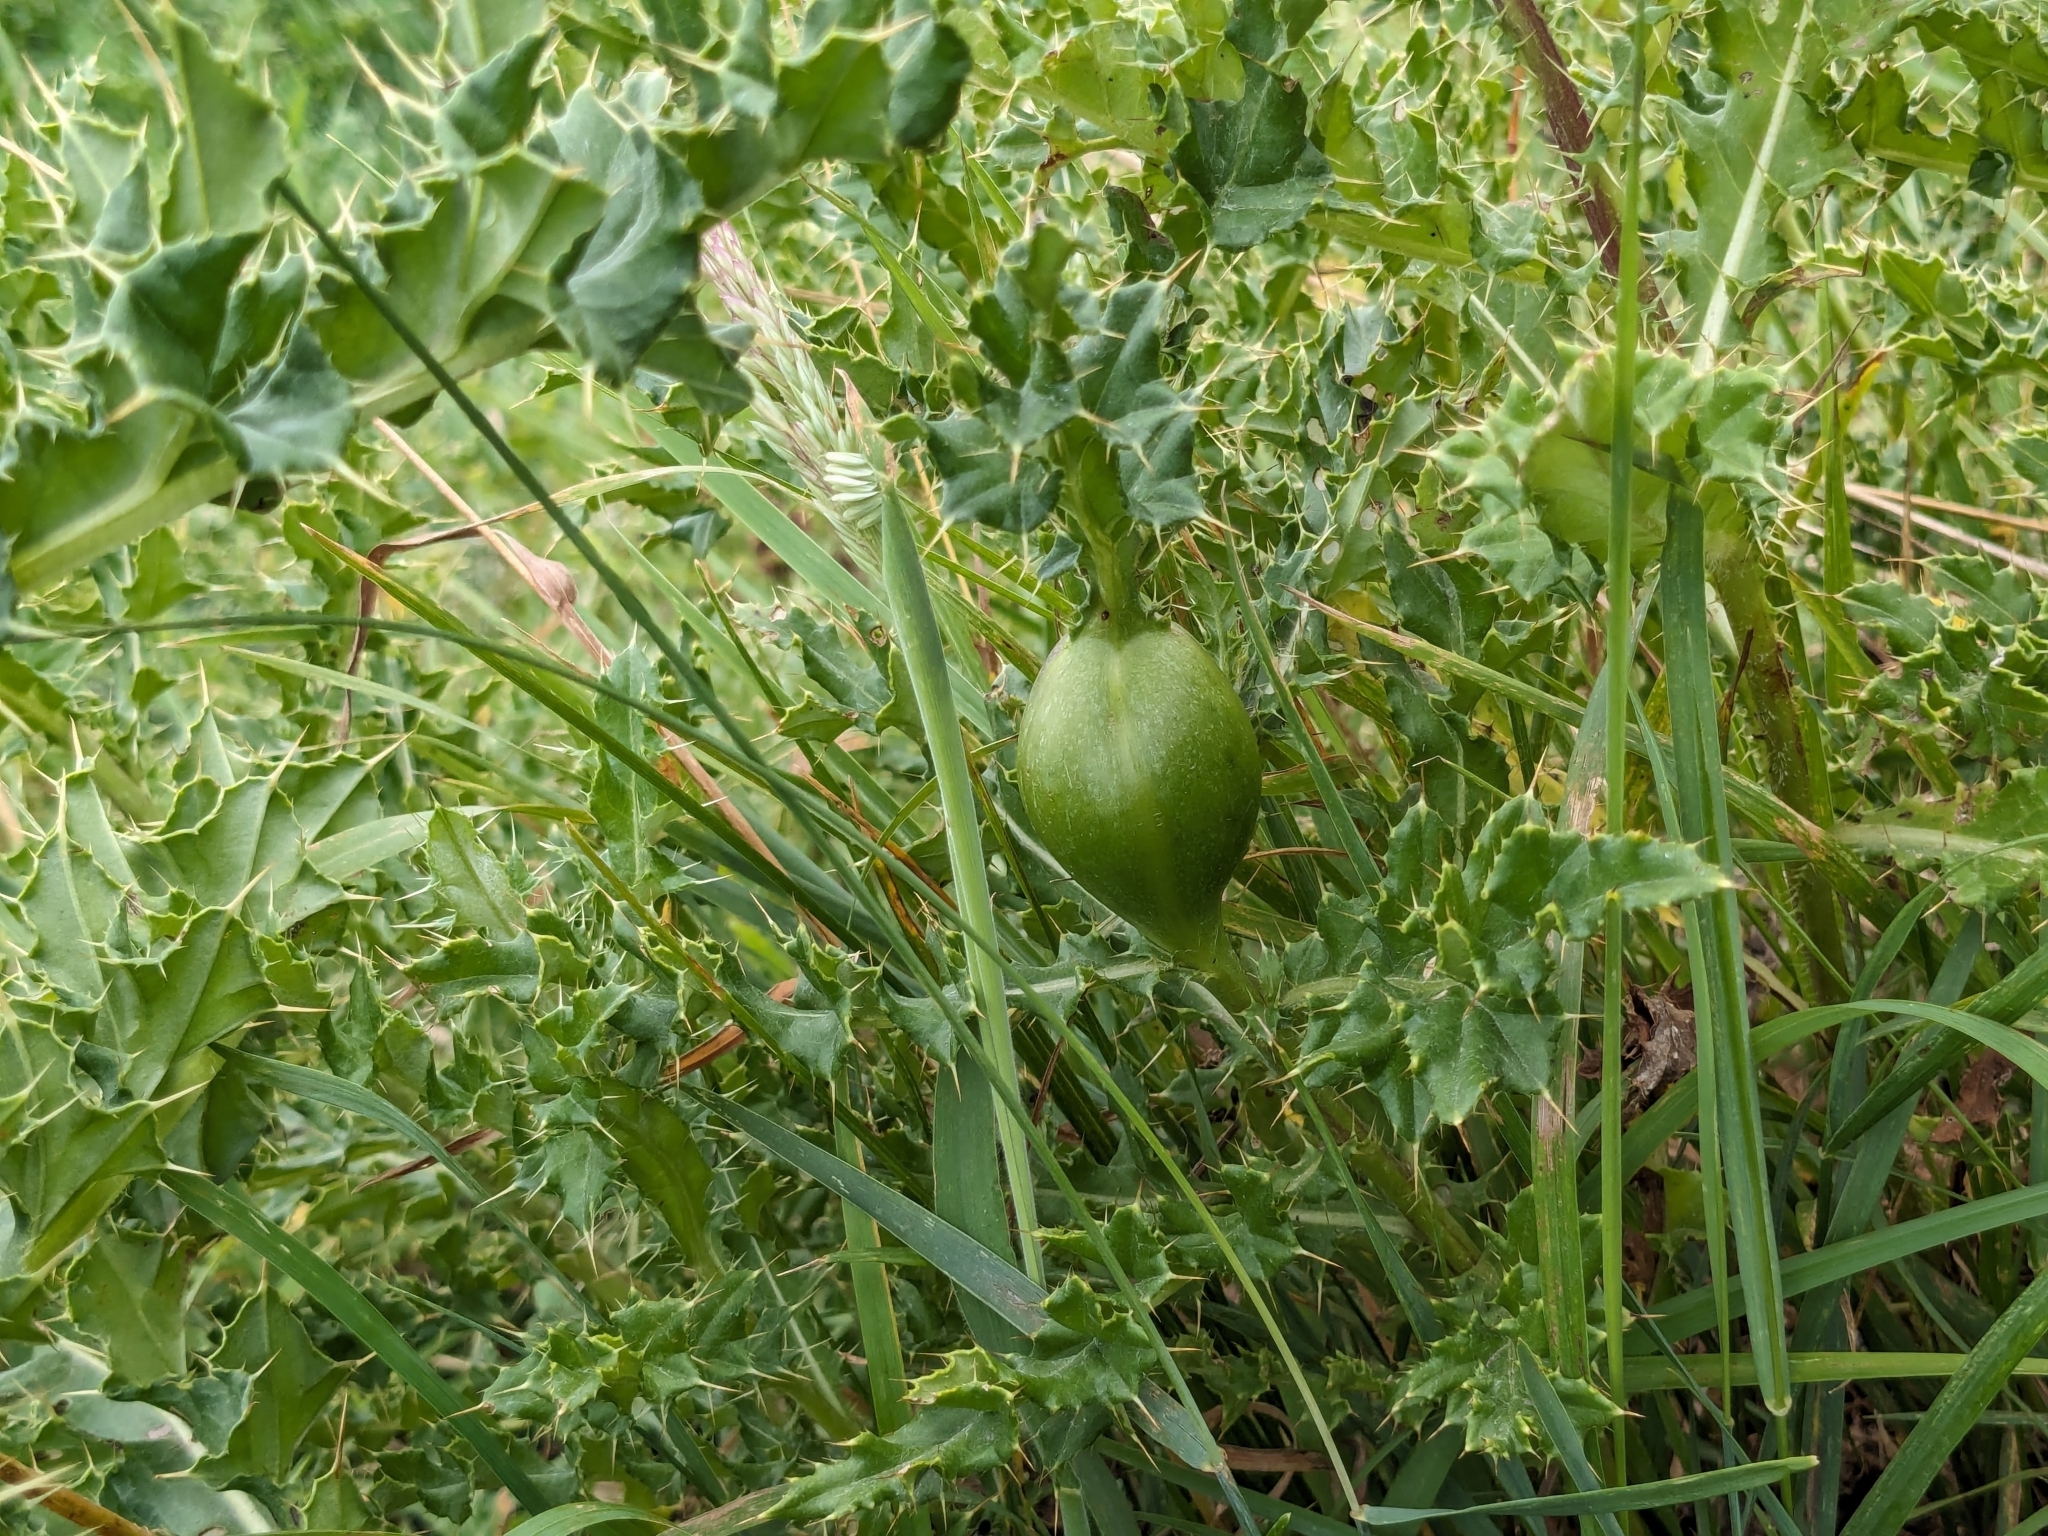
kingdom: Animalia
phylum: Arthropoda
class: Insecta
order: Diptera
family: Tephritidae
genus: Urophora
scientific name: Urophora cardui
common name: Fruit fly
